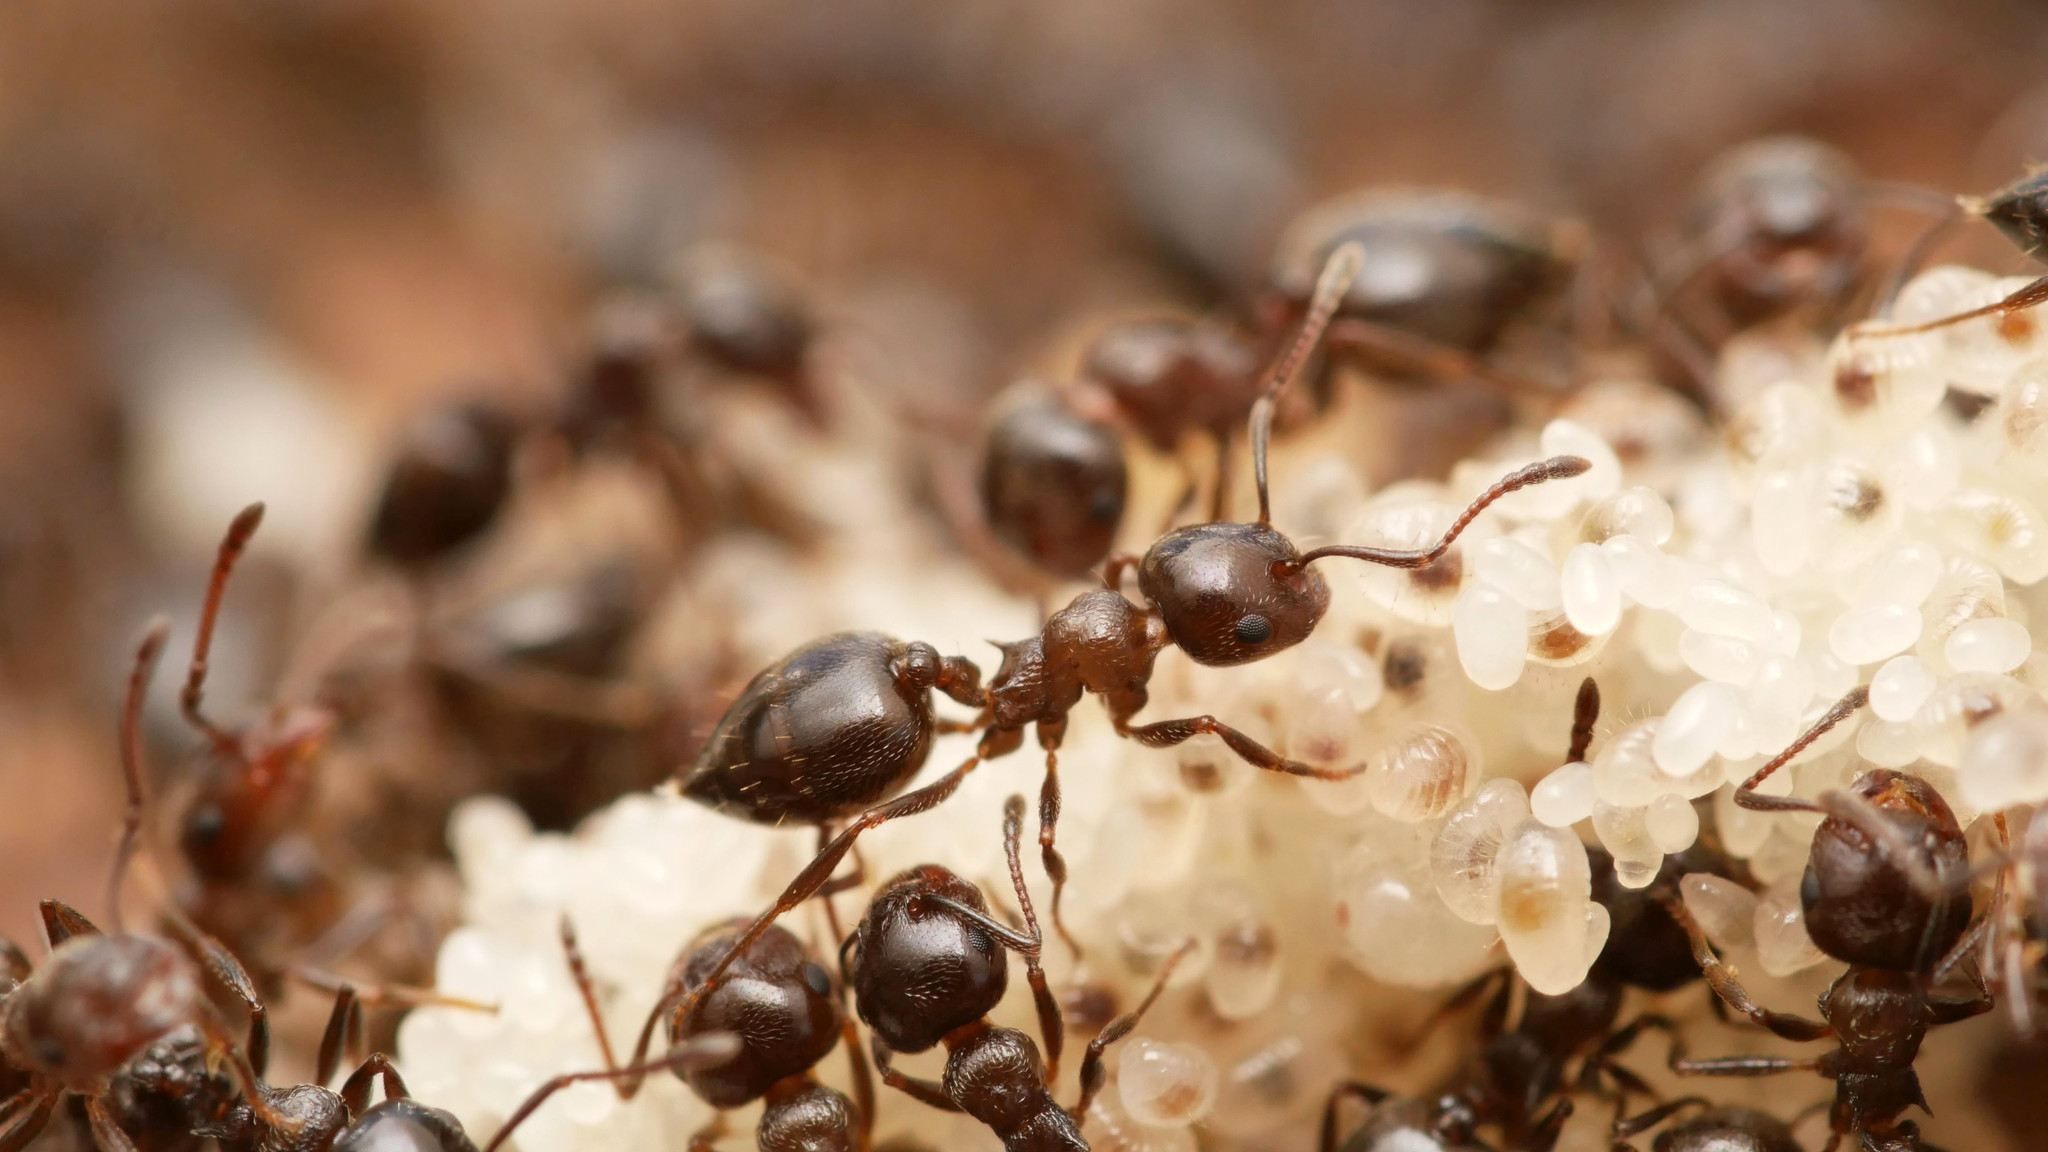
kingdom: Animalia
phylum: Arthropoda
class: Insecta
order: Hymenoptera
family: Formicidae
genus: Crematogaster
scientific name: Crematogaster auberti
